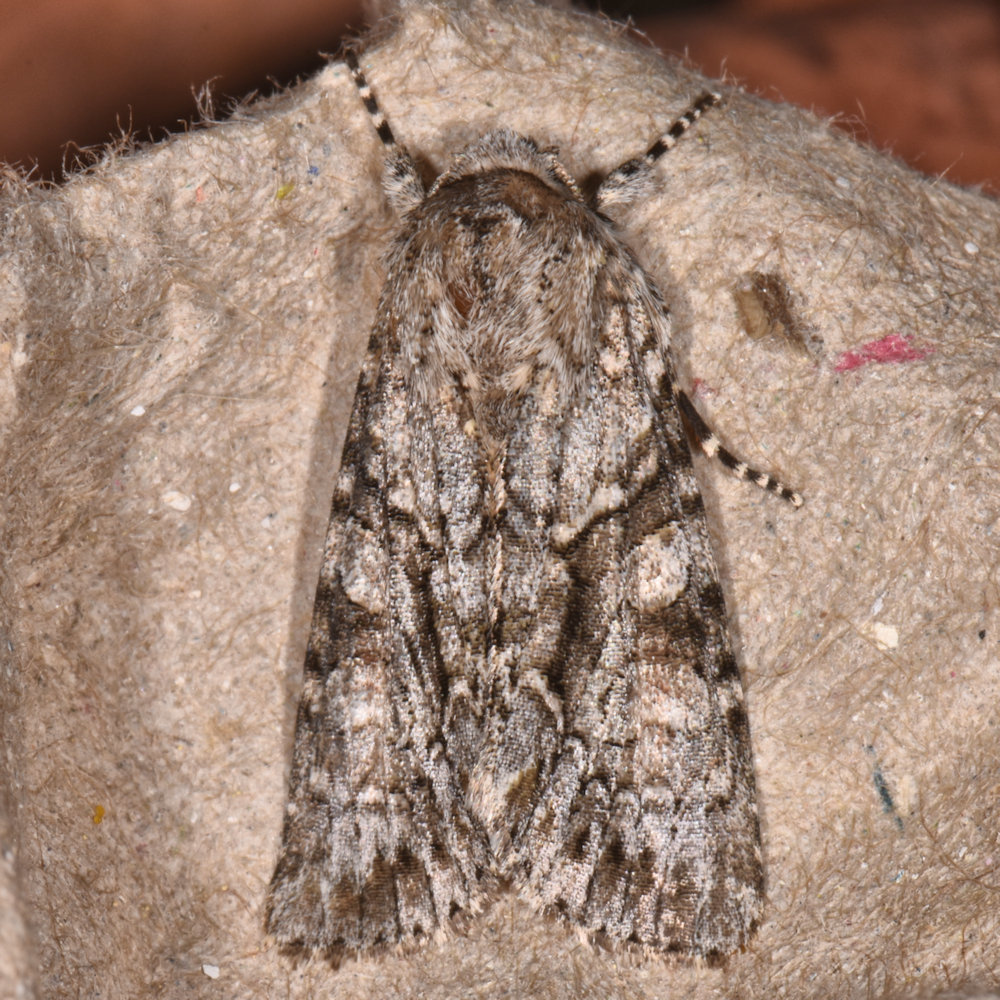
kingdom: Animalia
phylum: Arthropoda
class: Insecta
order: Lepidoptera
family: Noctuidae
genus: Achatia
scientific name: Achatia distincta
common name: Distinct quaker
